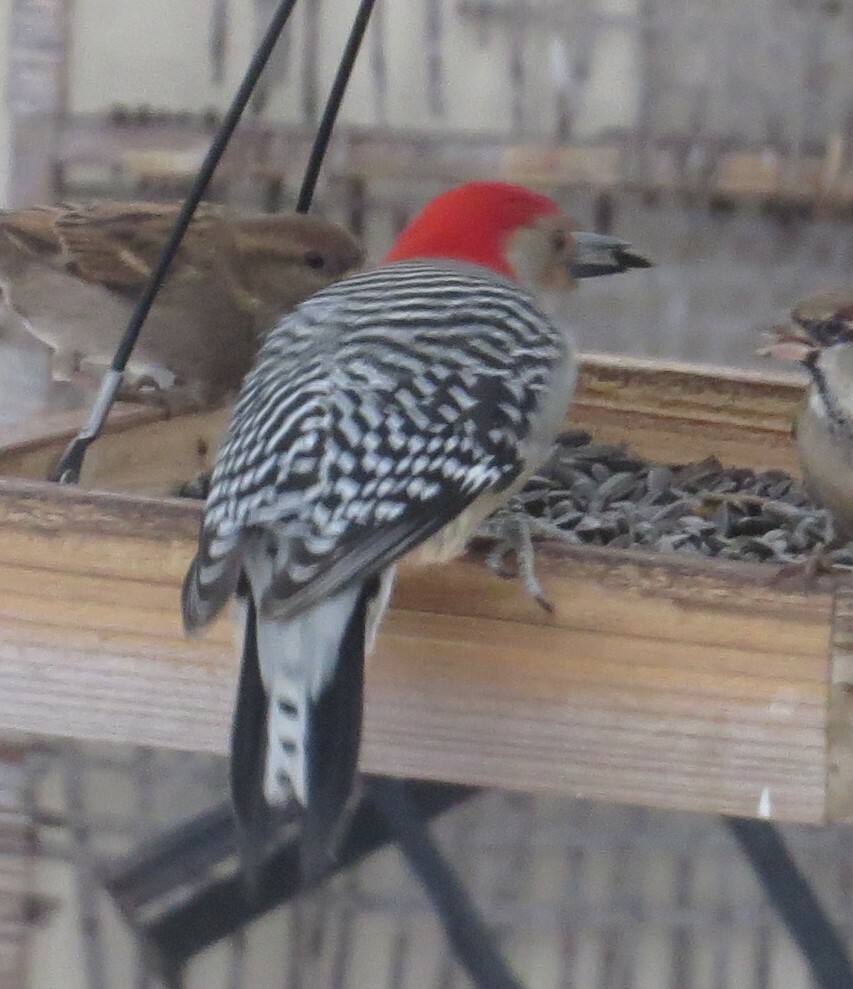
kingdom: Animalia
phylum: Chordata
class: Aves
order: Piciformes
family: Picidae
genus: Melanerpes
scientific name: Melanerpes carolinus
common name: Red-bellied woodpecker
